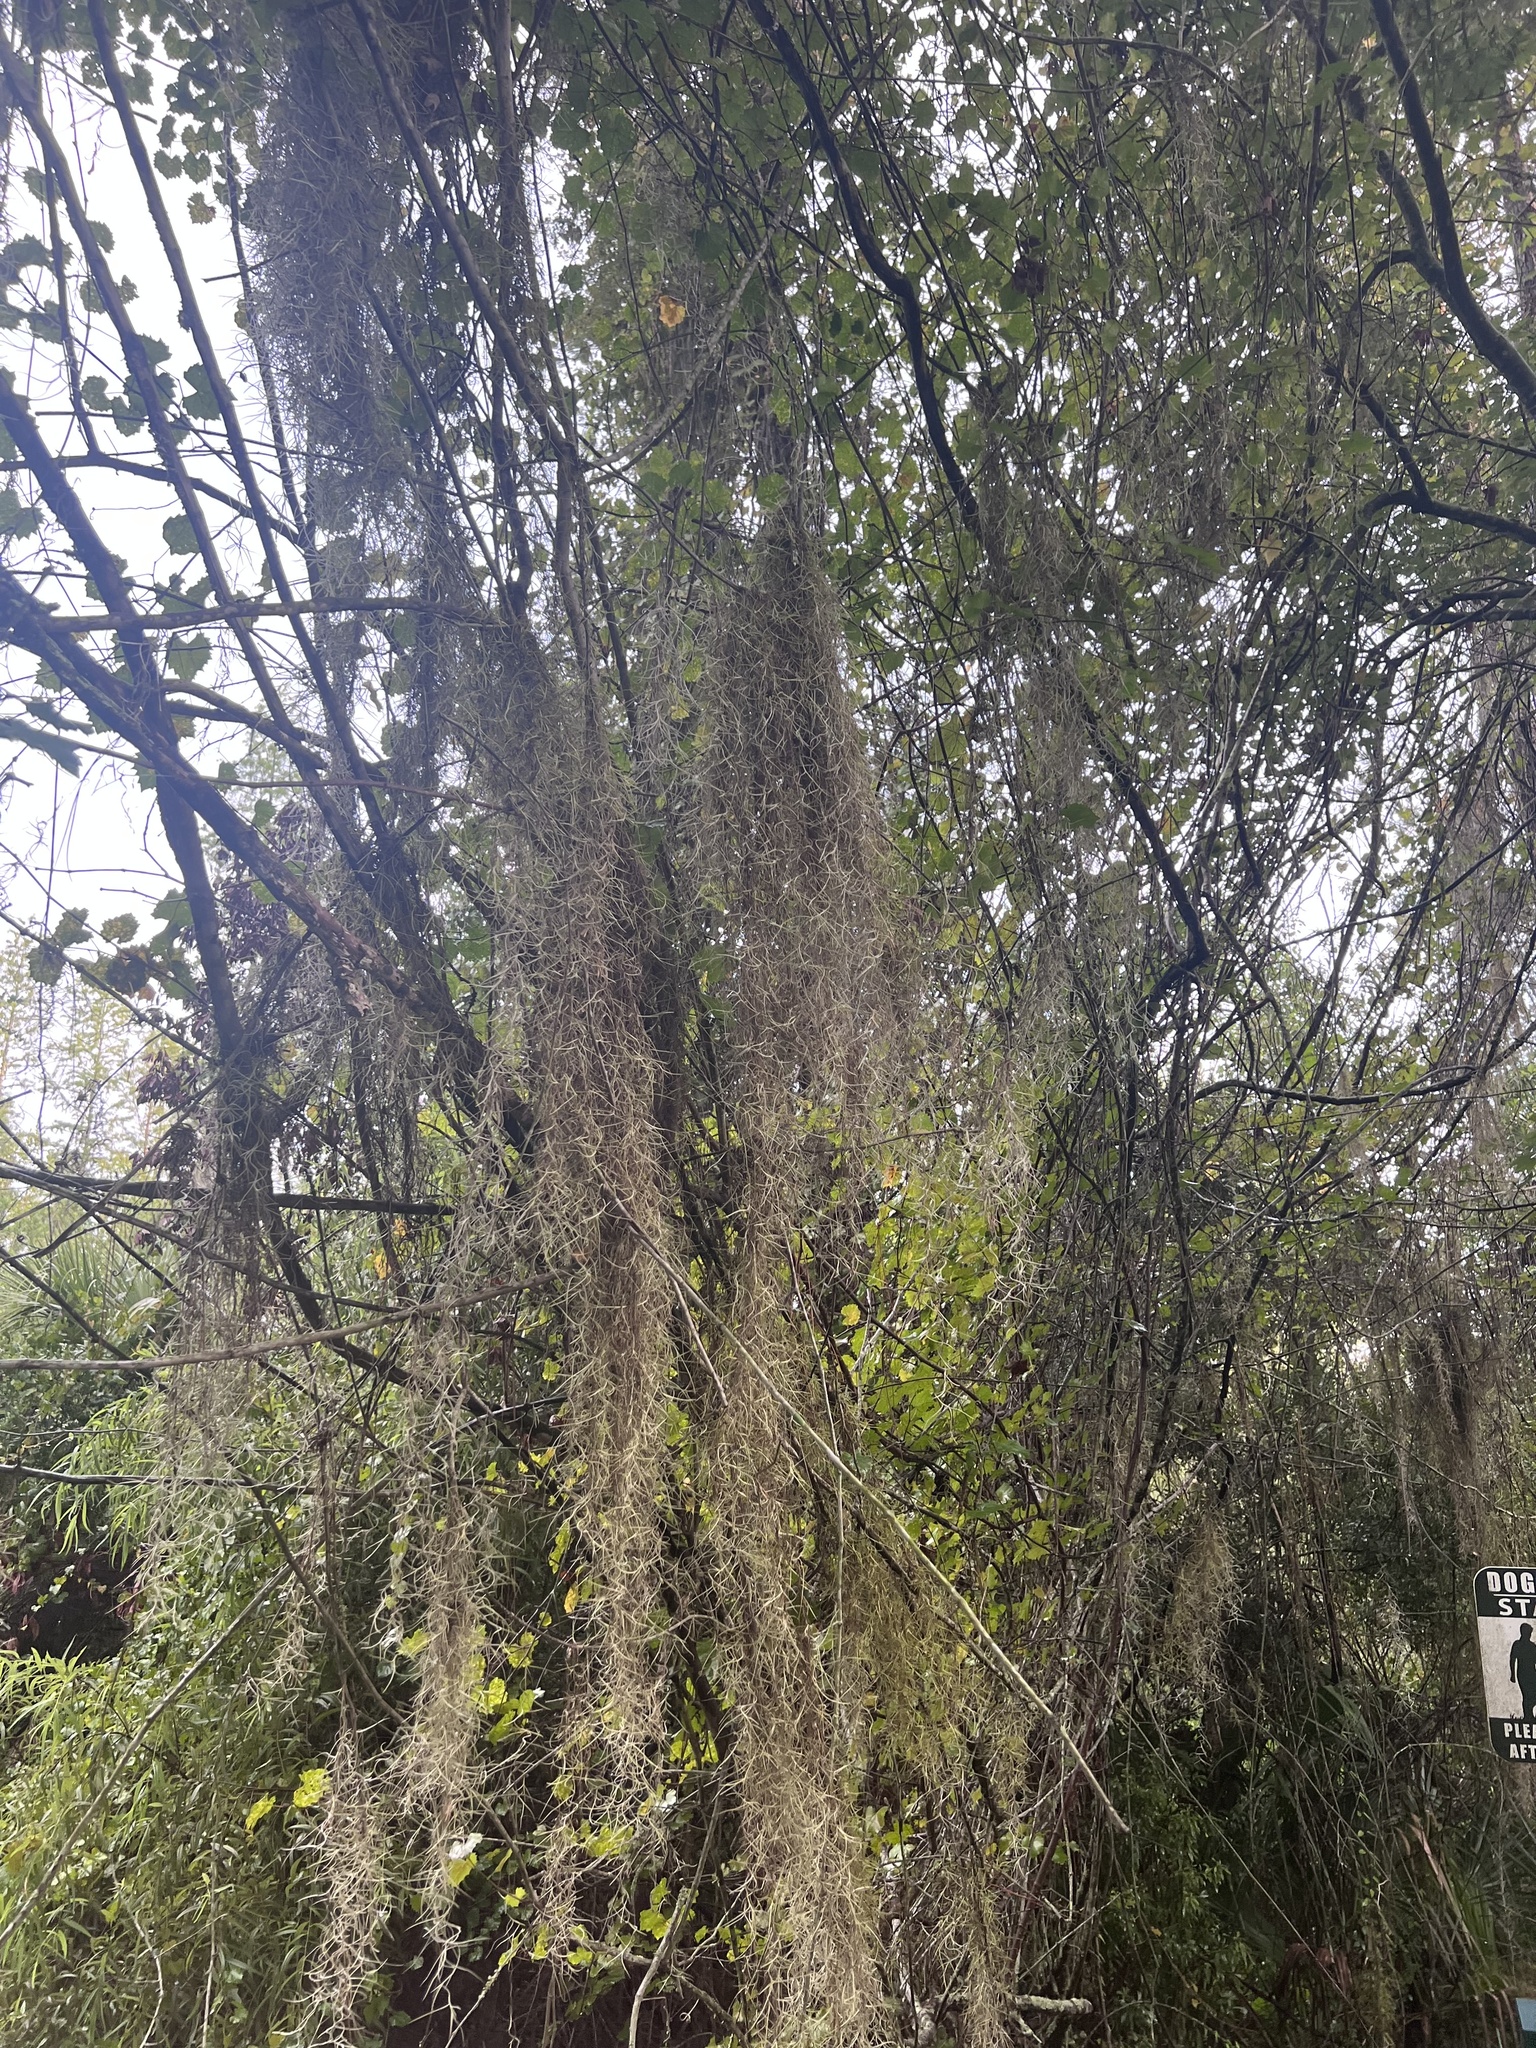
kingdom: Plantae
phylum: Tracheophyta
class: Magnoliopsida
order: Vitales
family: Vitaceae
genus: Vitis
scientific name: Vitis rotundifolia
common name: Muscadine grape
